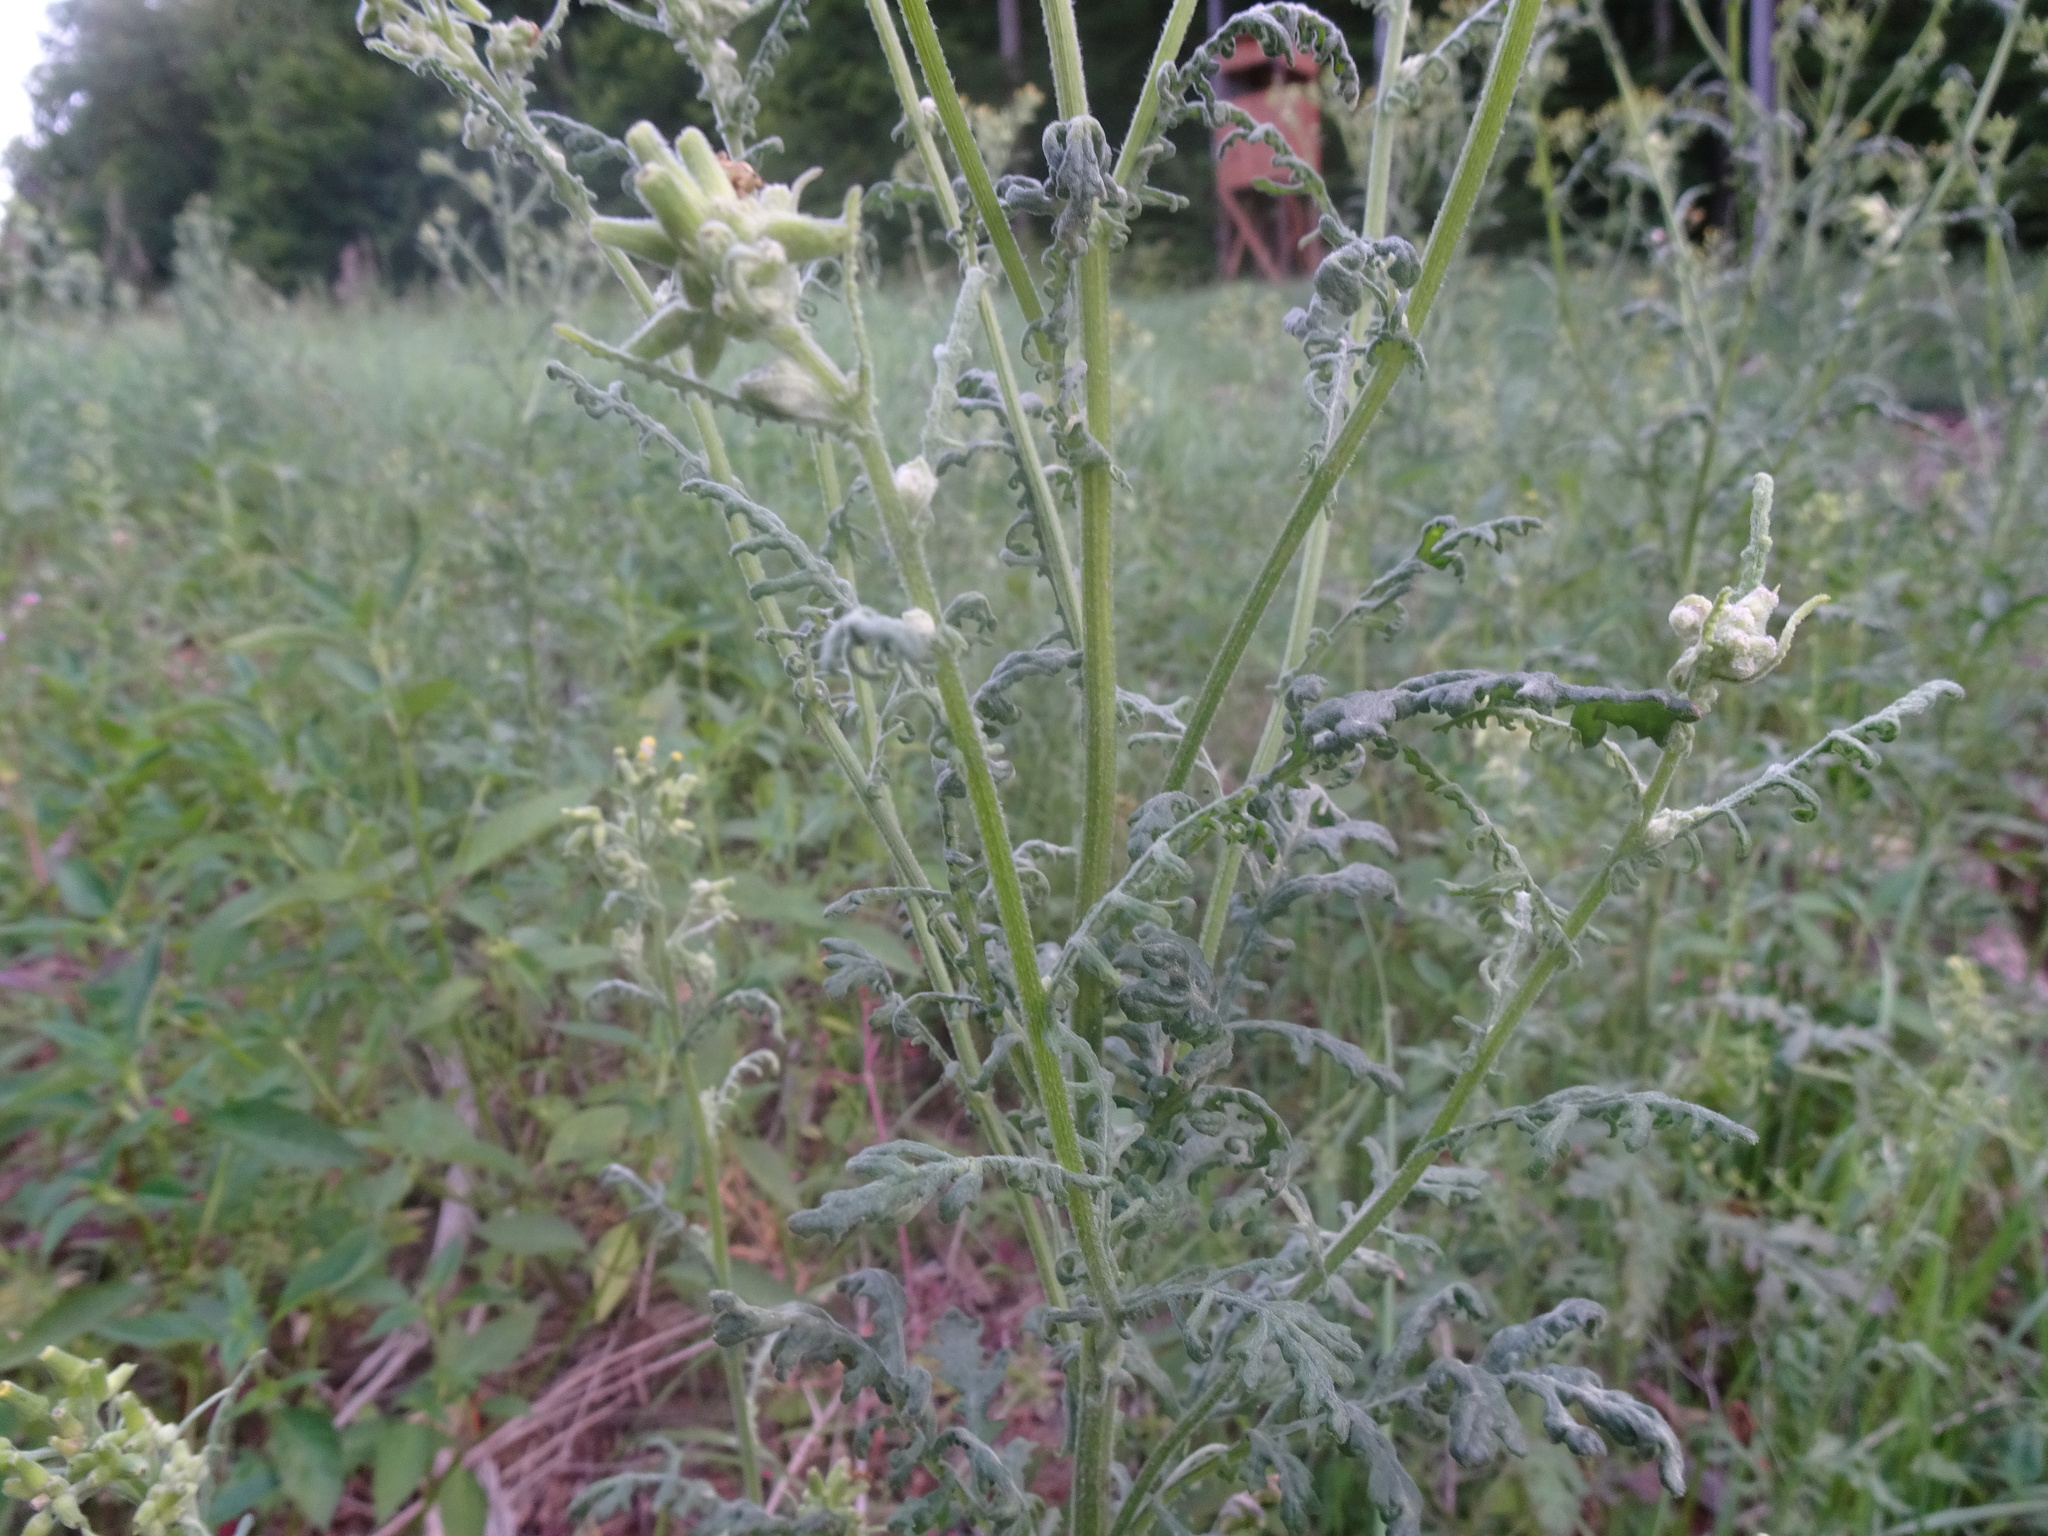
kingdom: Plantae
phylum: Tracheophyta
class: Magnoliopsida
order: Asterales
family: Asteraceae
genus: Senecio
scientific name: Senecio sylvaticus
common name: Woodland ragwort
